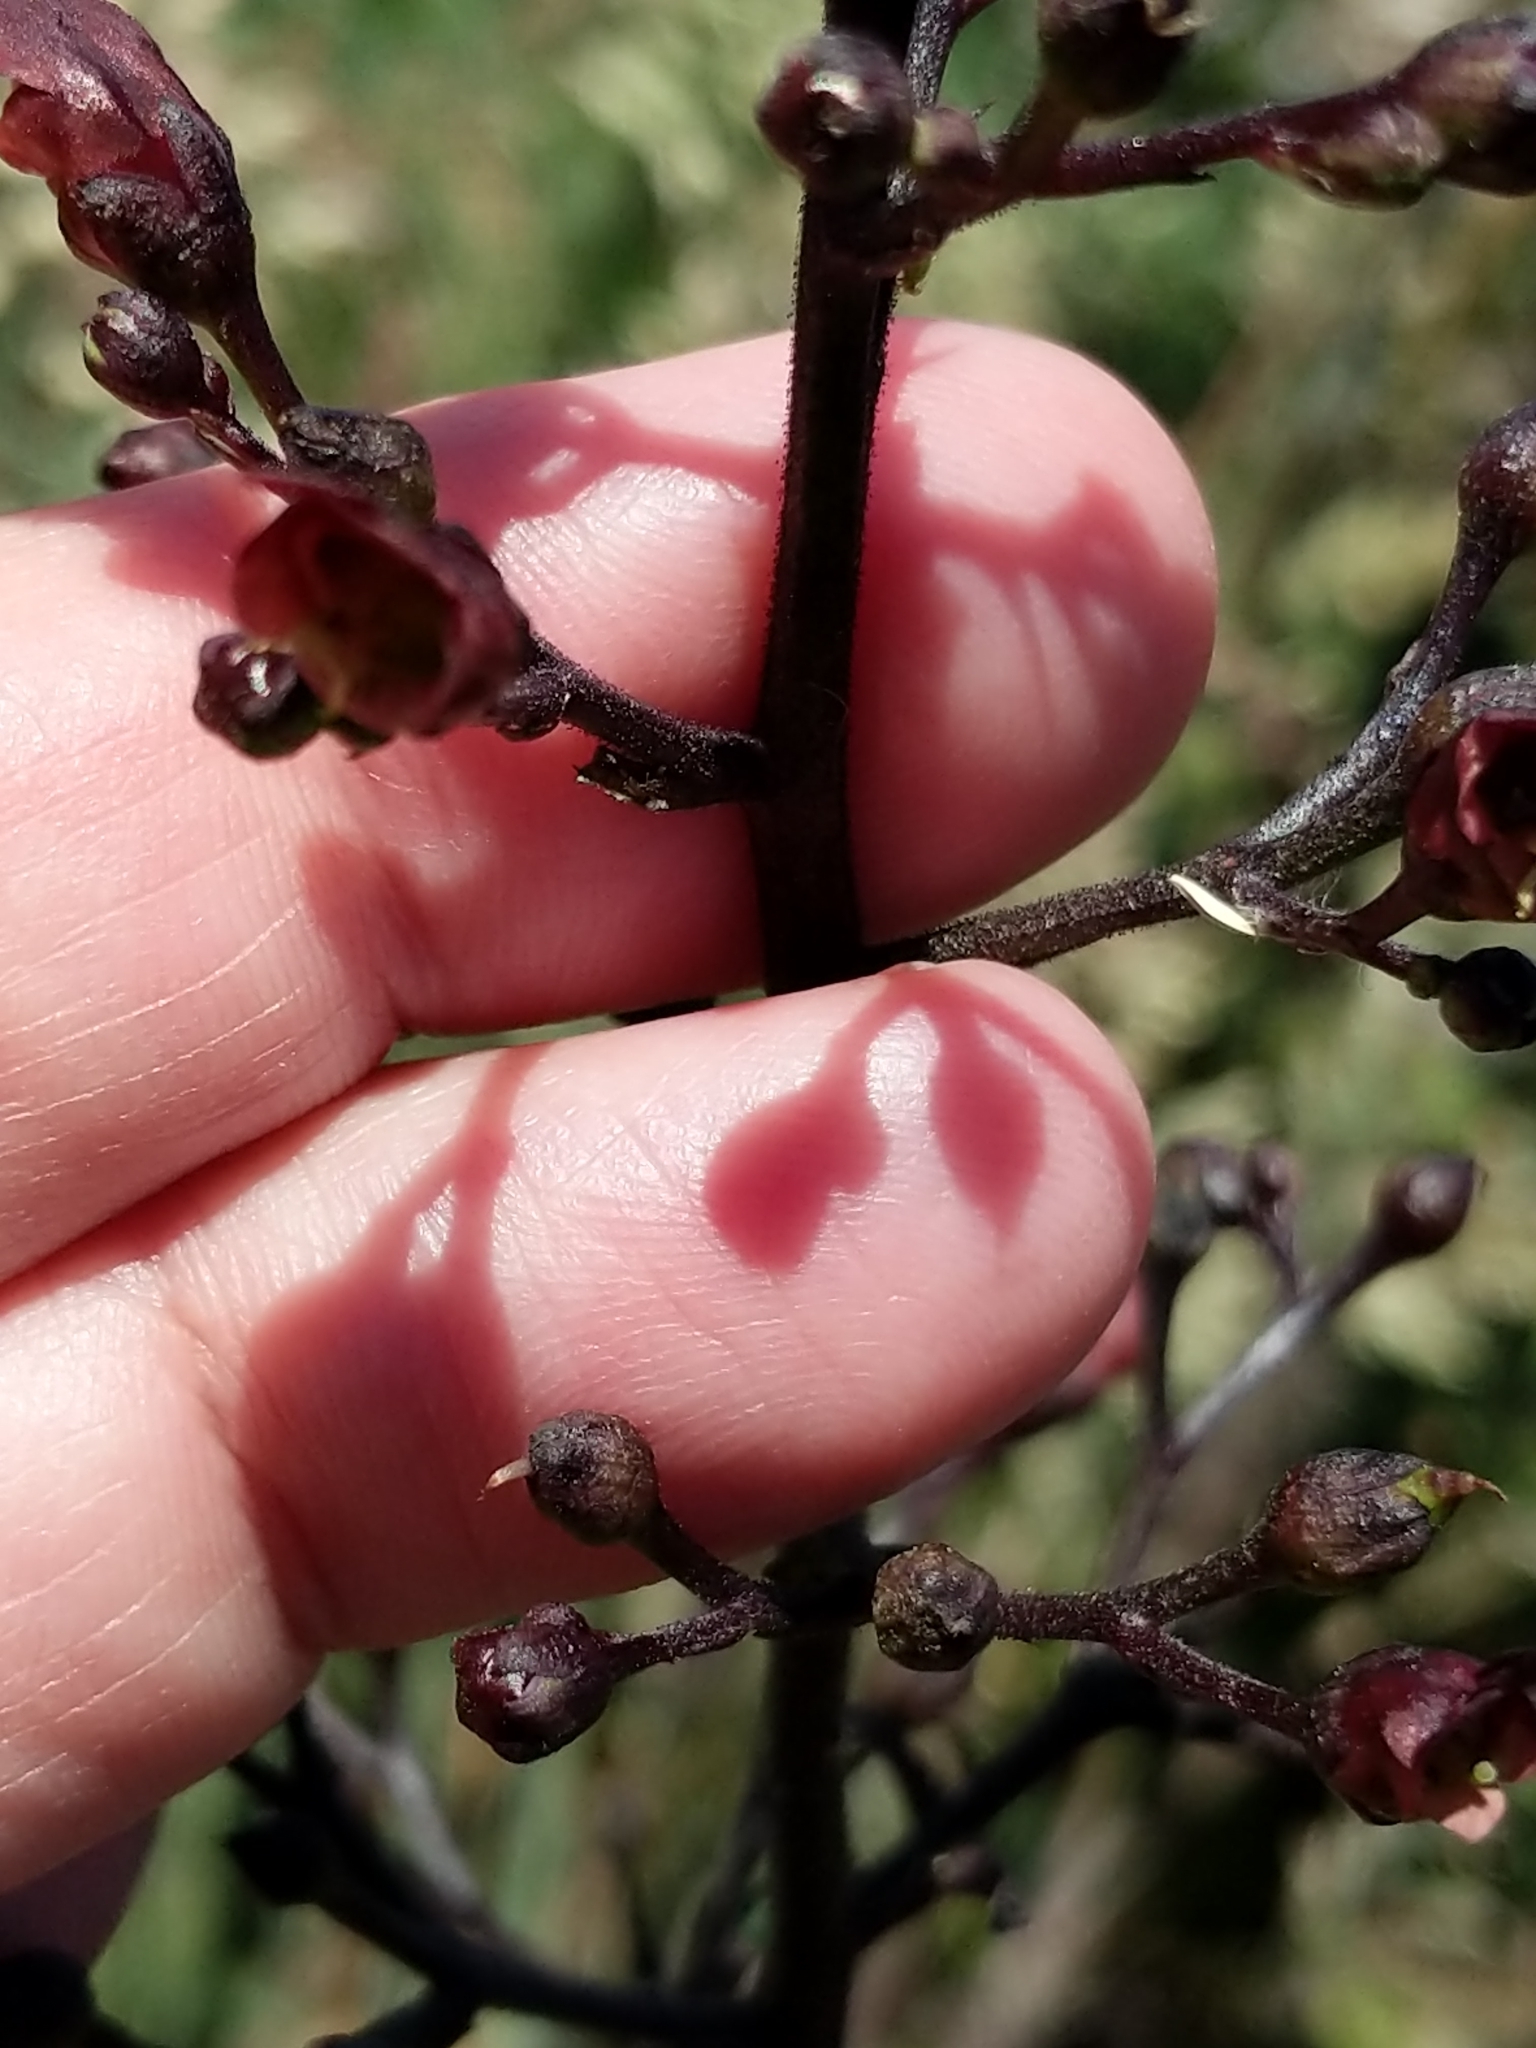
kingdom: Plantae
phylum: Tracheophyta
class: Magnoliopsida
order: Lamiales
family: Scrophulariaceae
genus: Scrophularia
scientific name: Scrophularia californica
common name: California figwort
